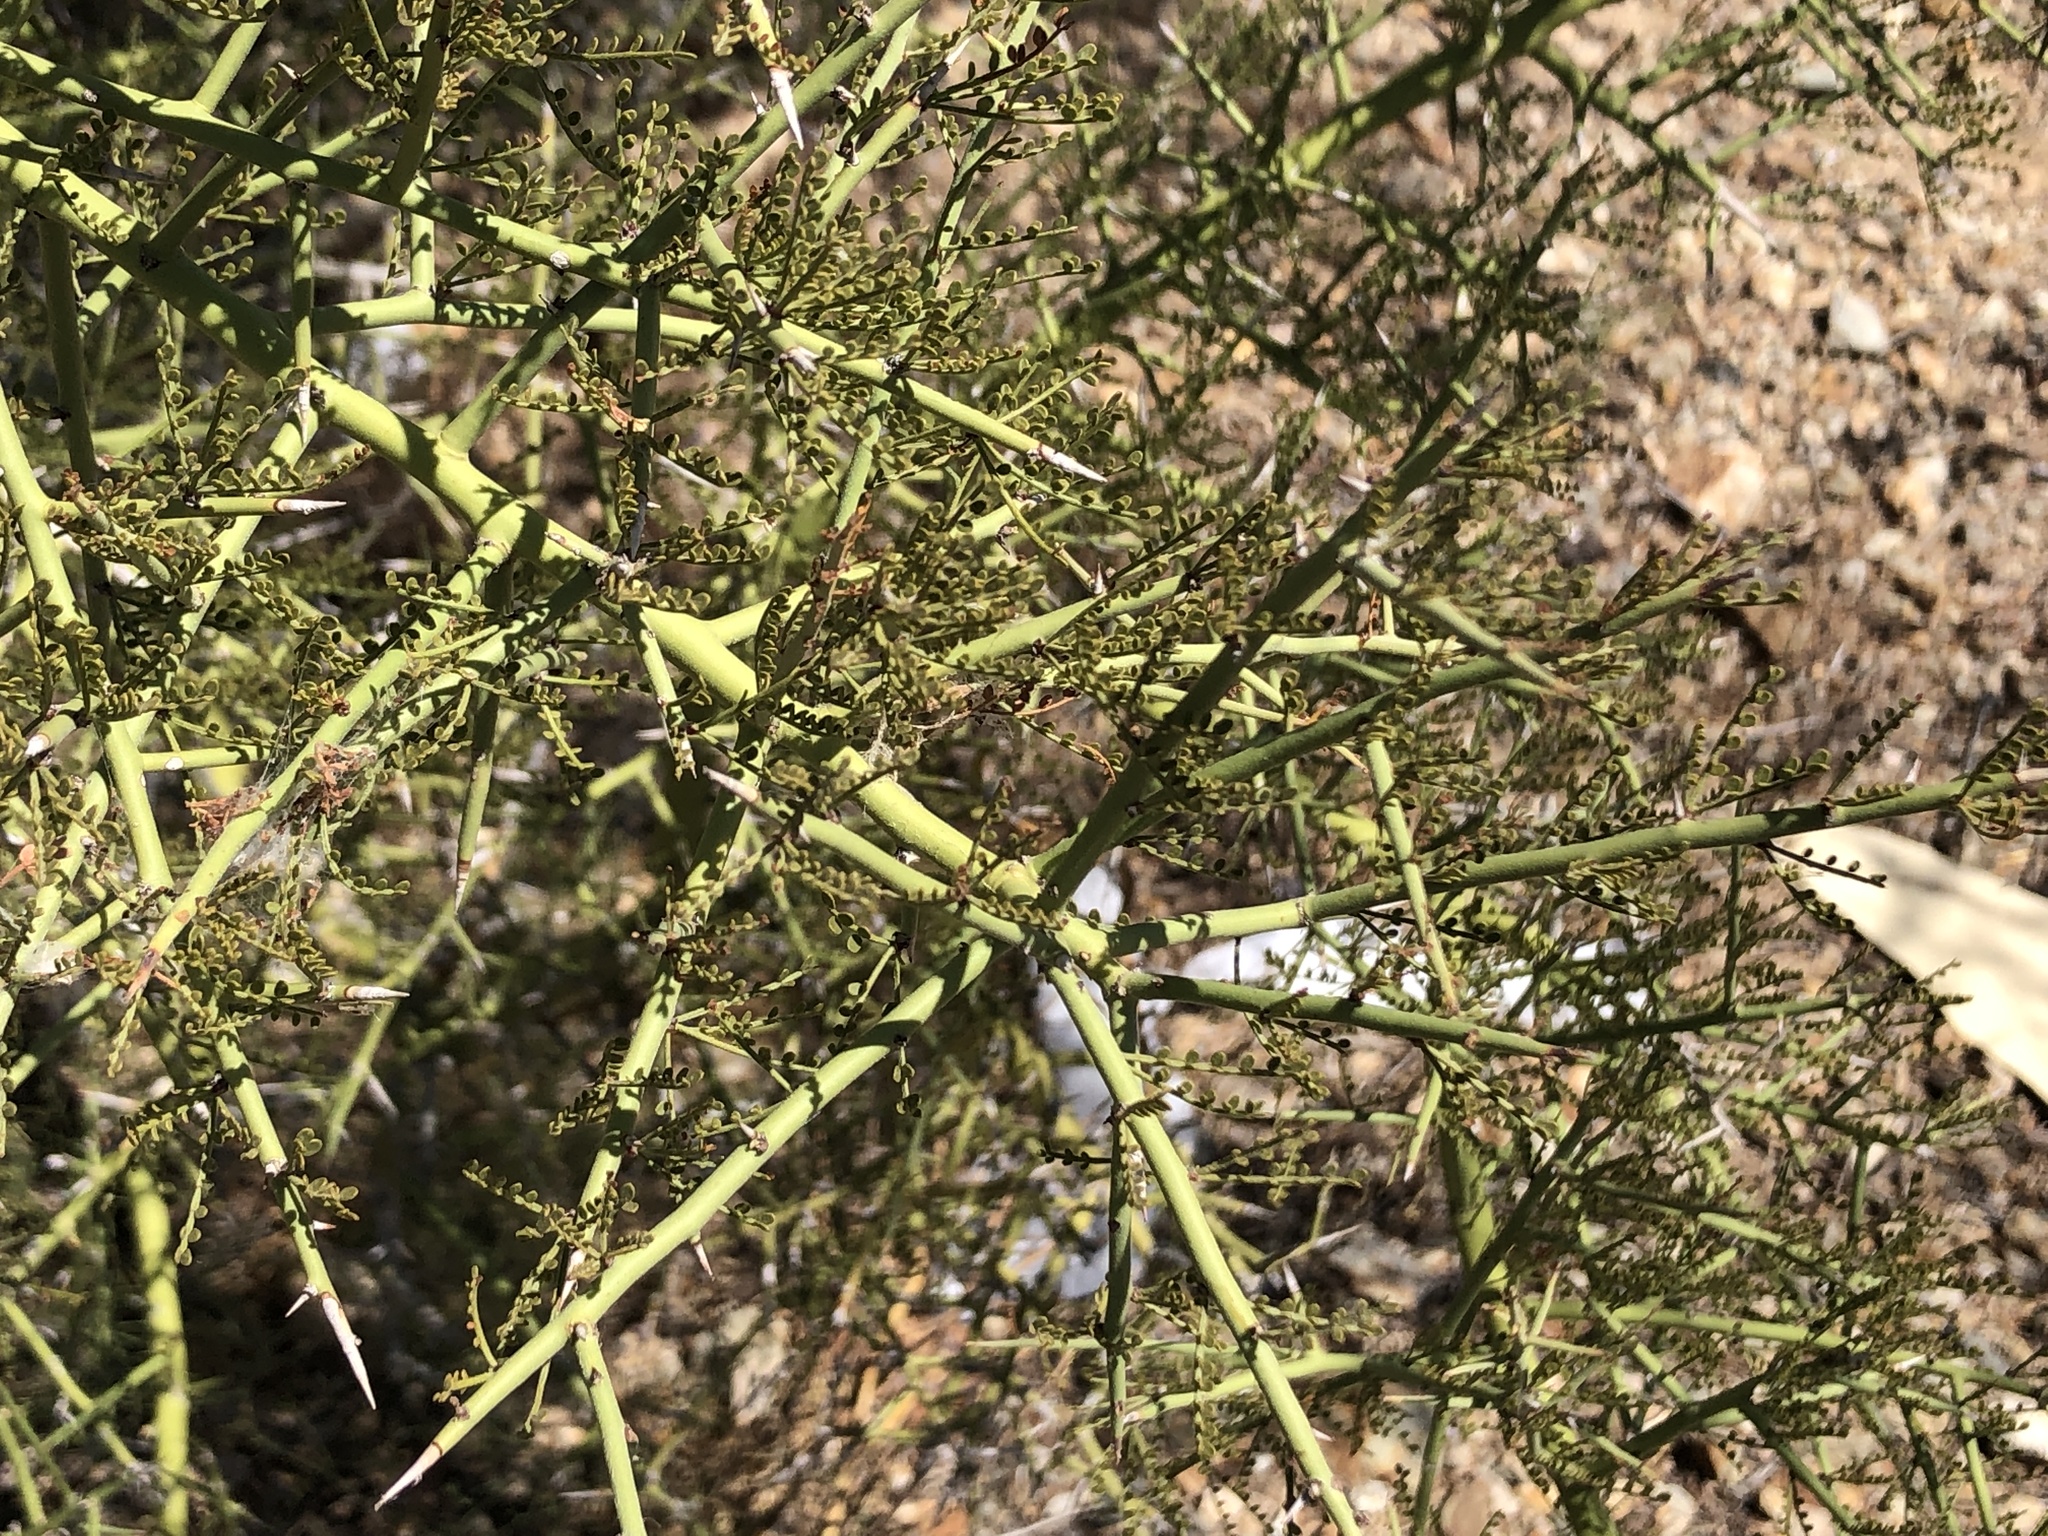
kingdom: Plantae
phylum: Tracheophyta
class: Magnoliopsida
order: Fabales
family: Fabaceae
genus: Parkinsonia
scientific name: Parkinsonia microphylla
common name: Yellow paloverde
